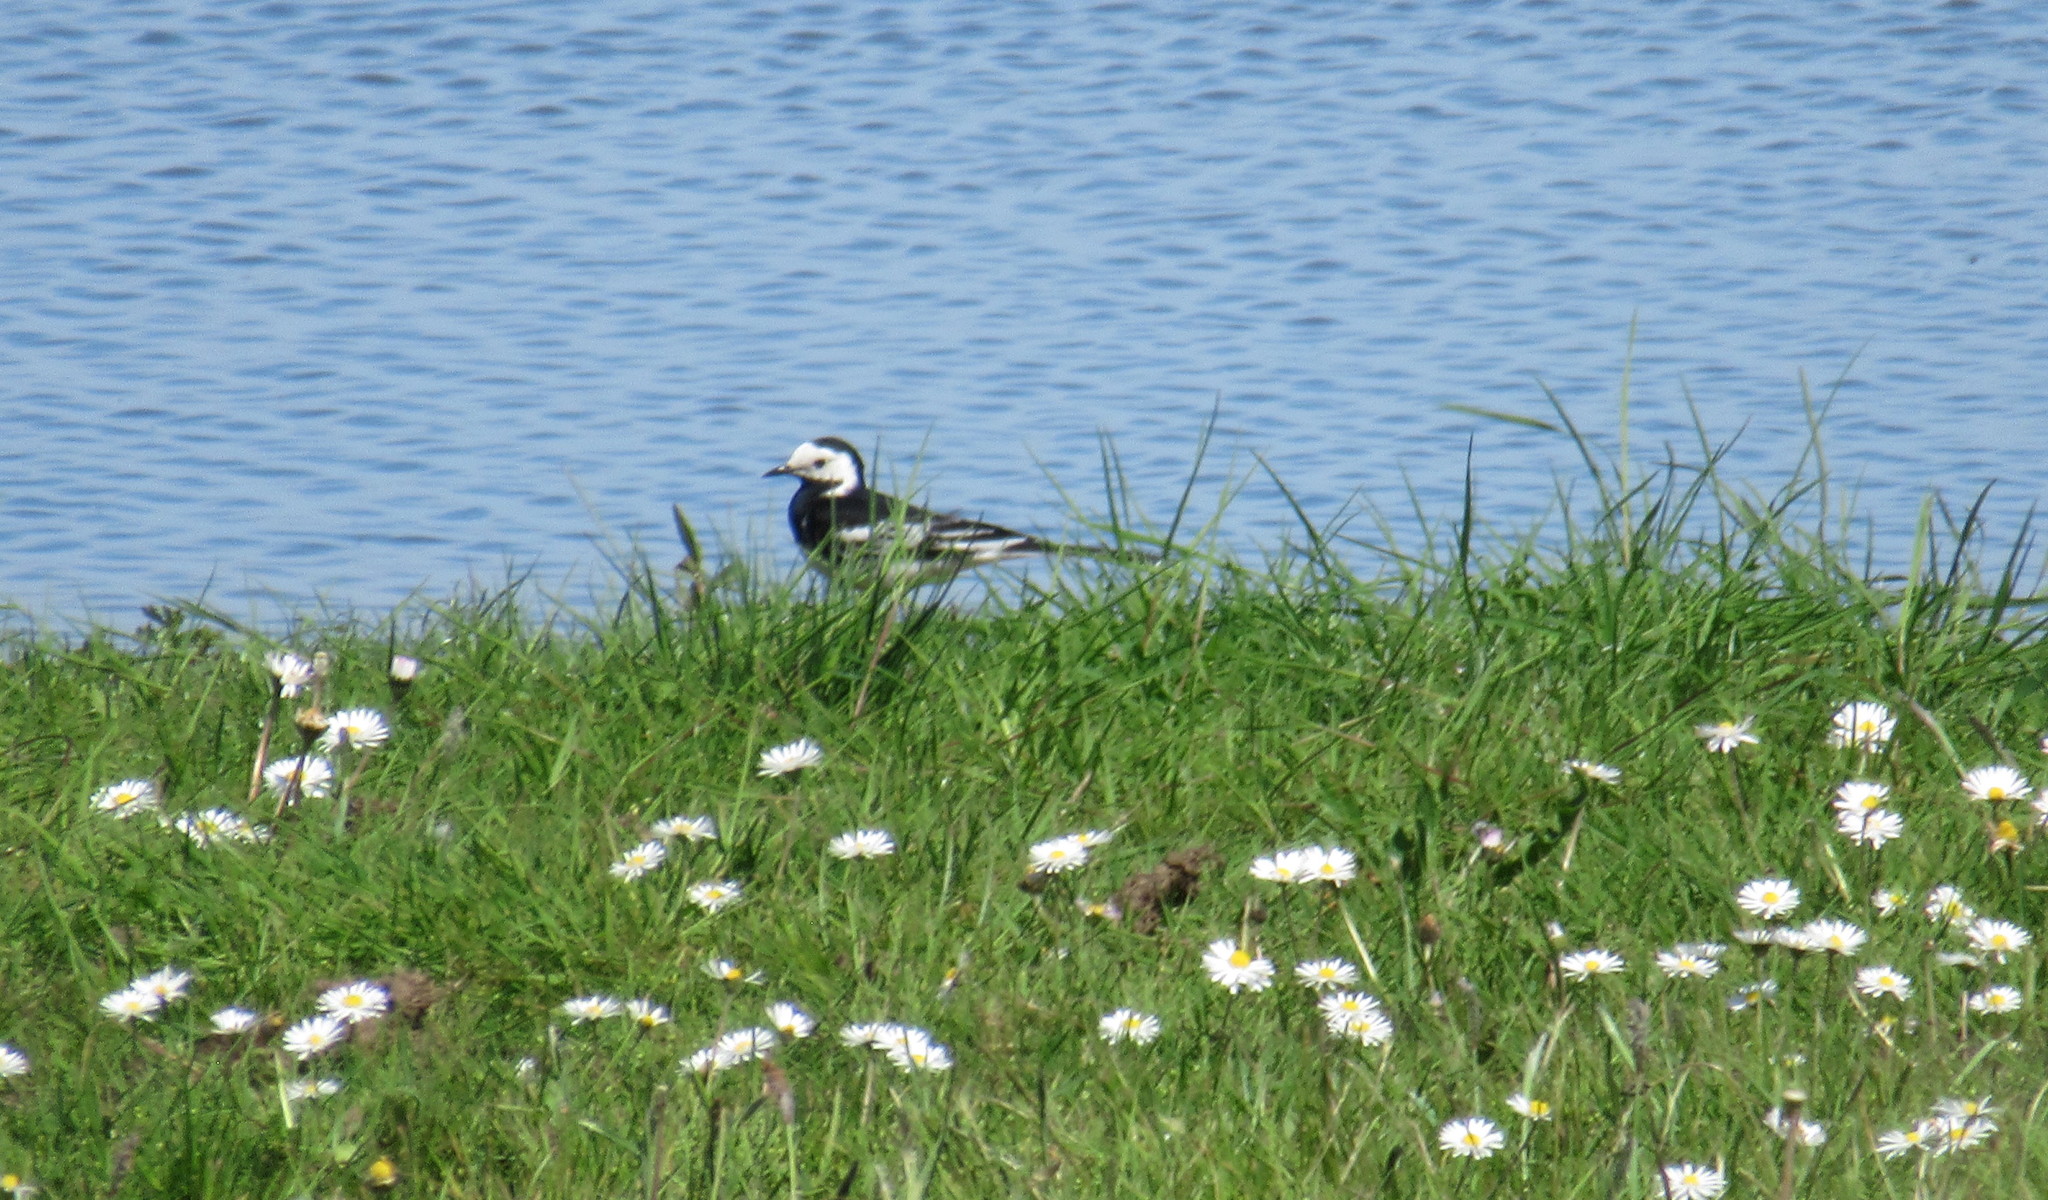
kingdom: Animalia
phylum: Chordata
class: Aves
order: Passeriformes
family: Motacillidae
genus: Motacilla
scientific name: Motacilla alba
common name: White wagtail
